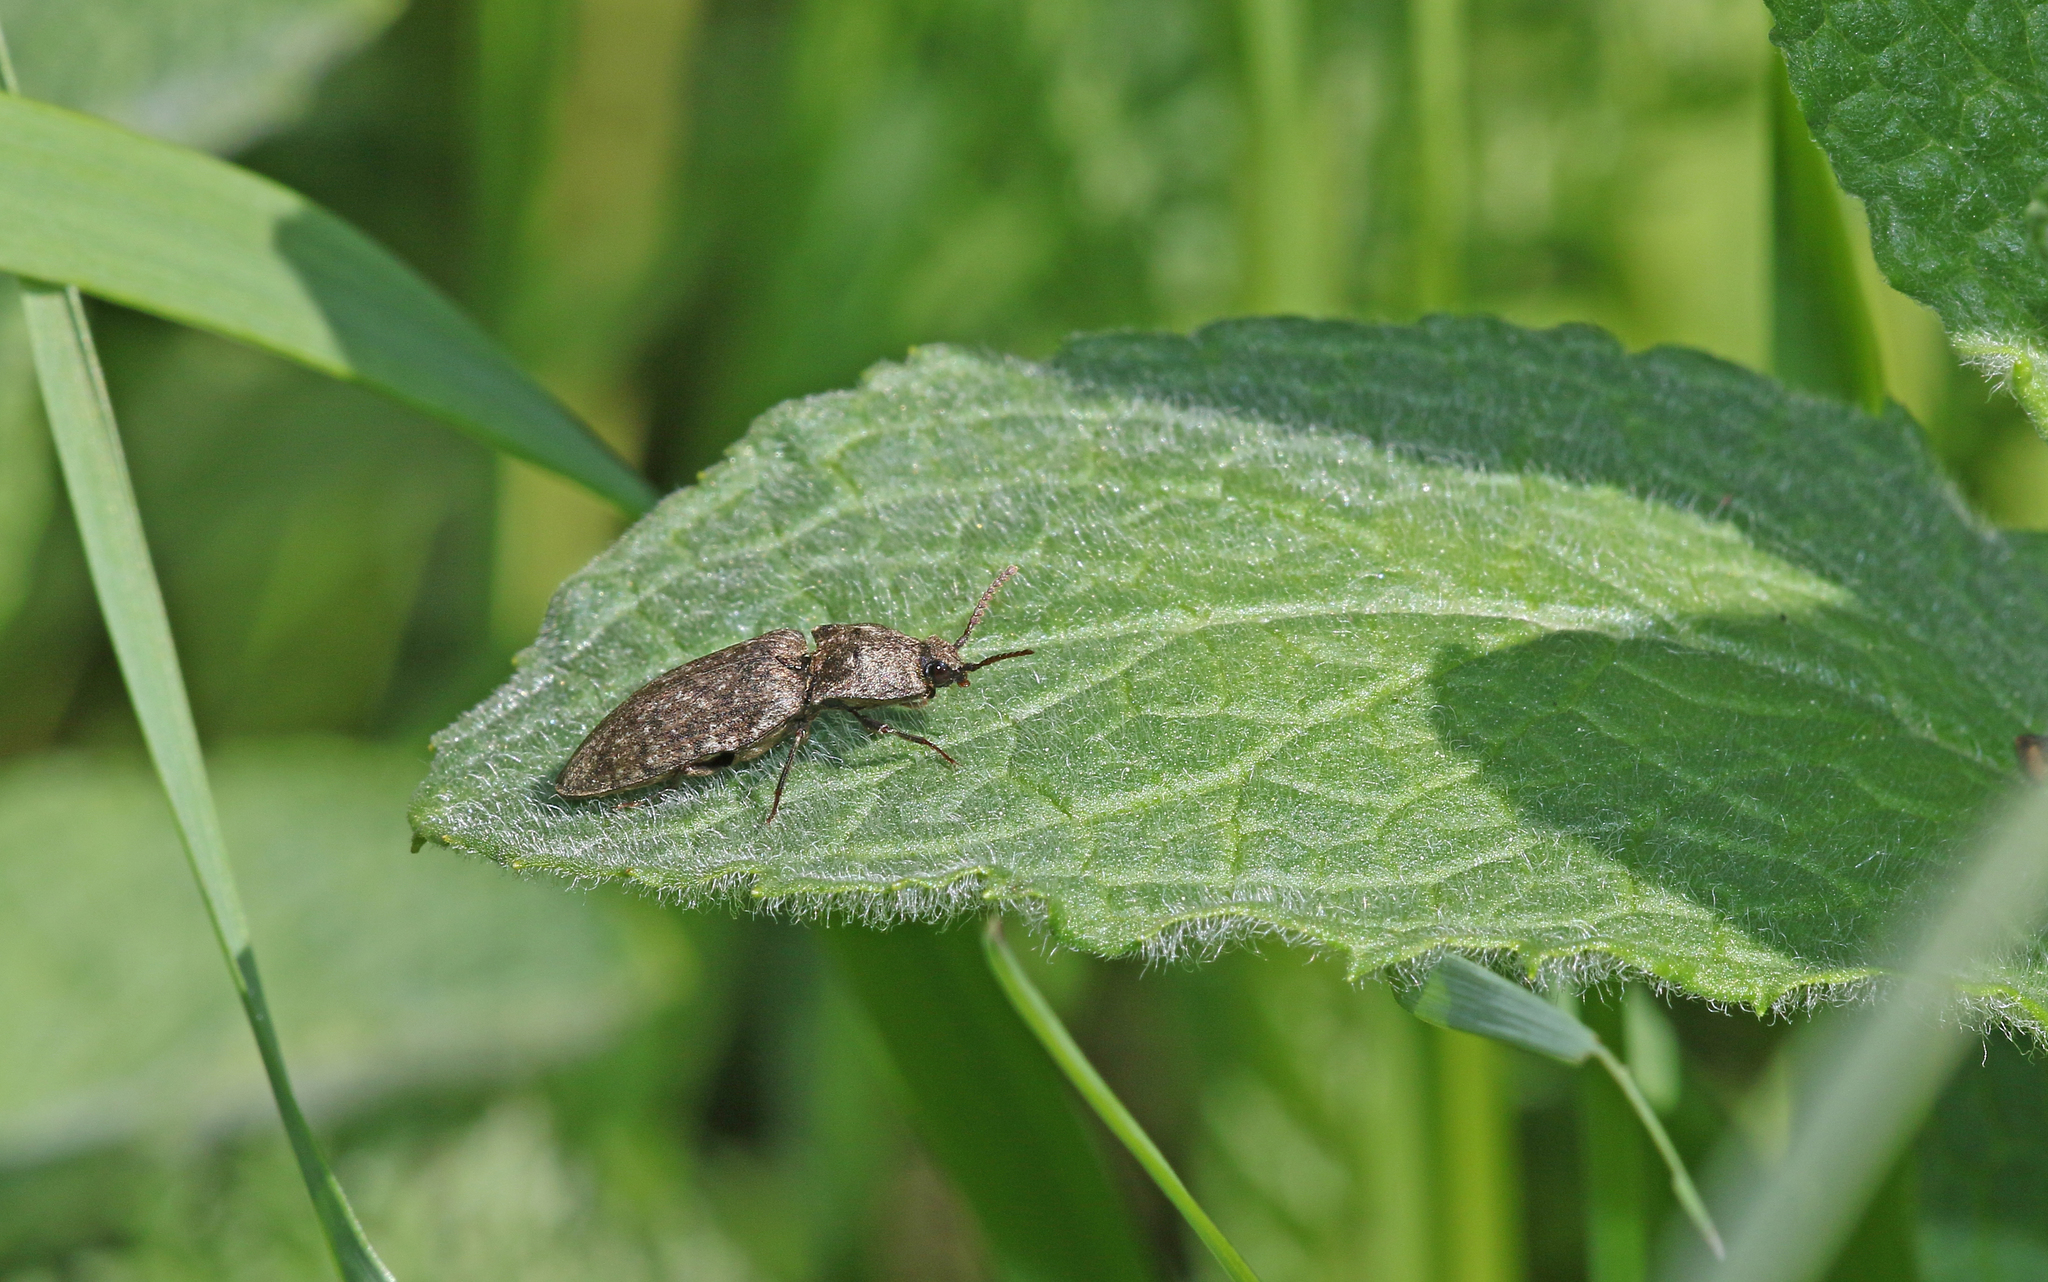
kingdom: Animalia
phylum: Arthropoda
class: Insecta
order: Coleoptera
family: Elateridae
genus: Agrypnus
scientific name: Agrypnus murinus
